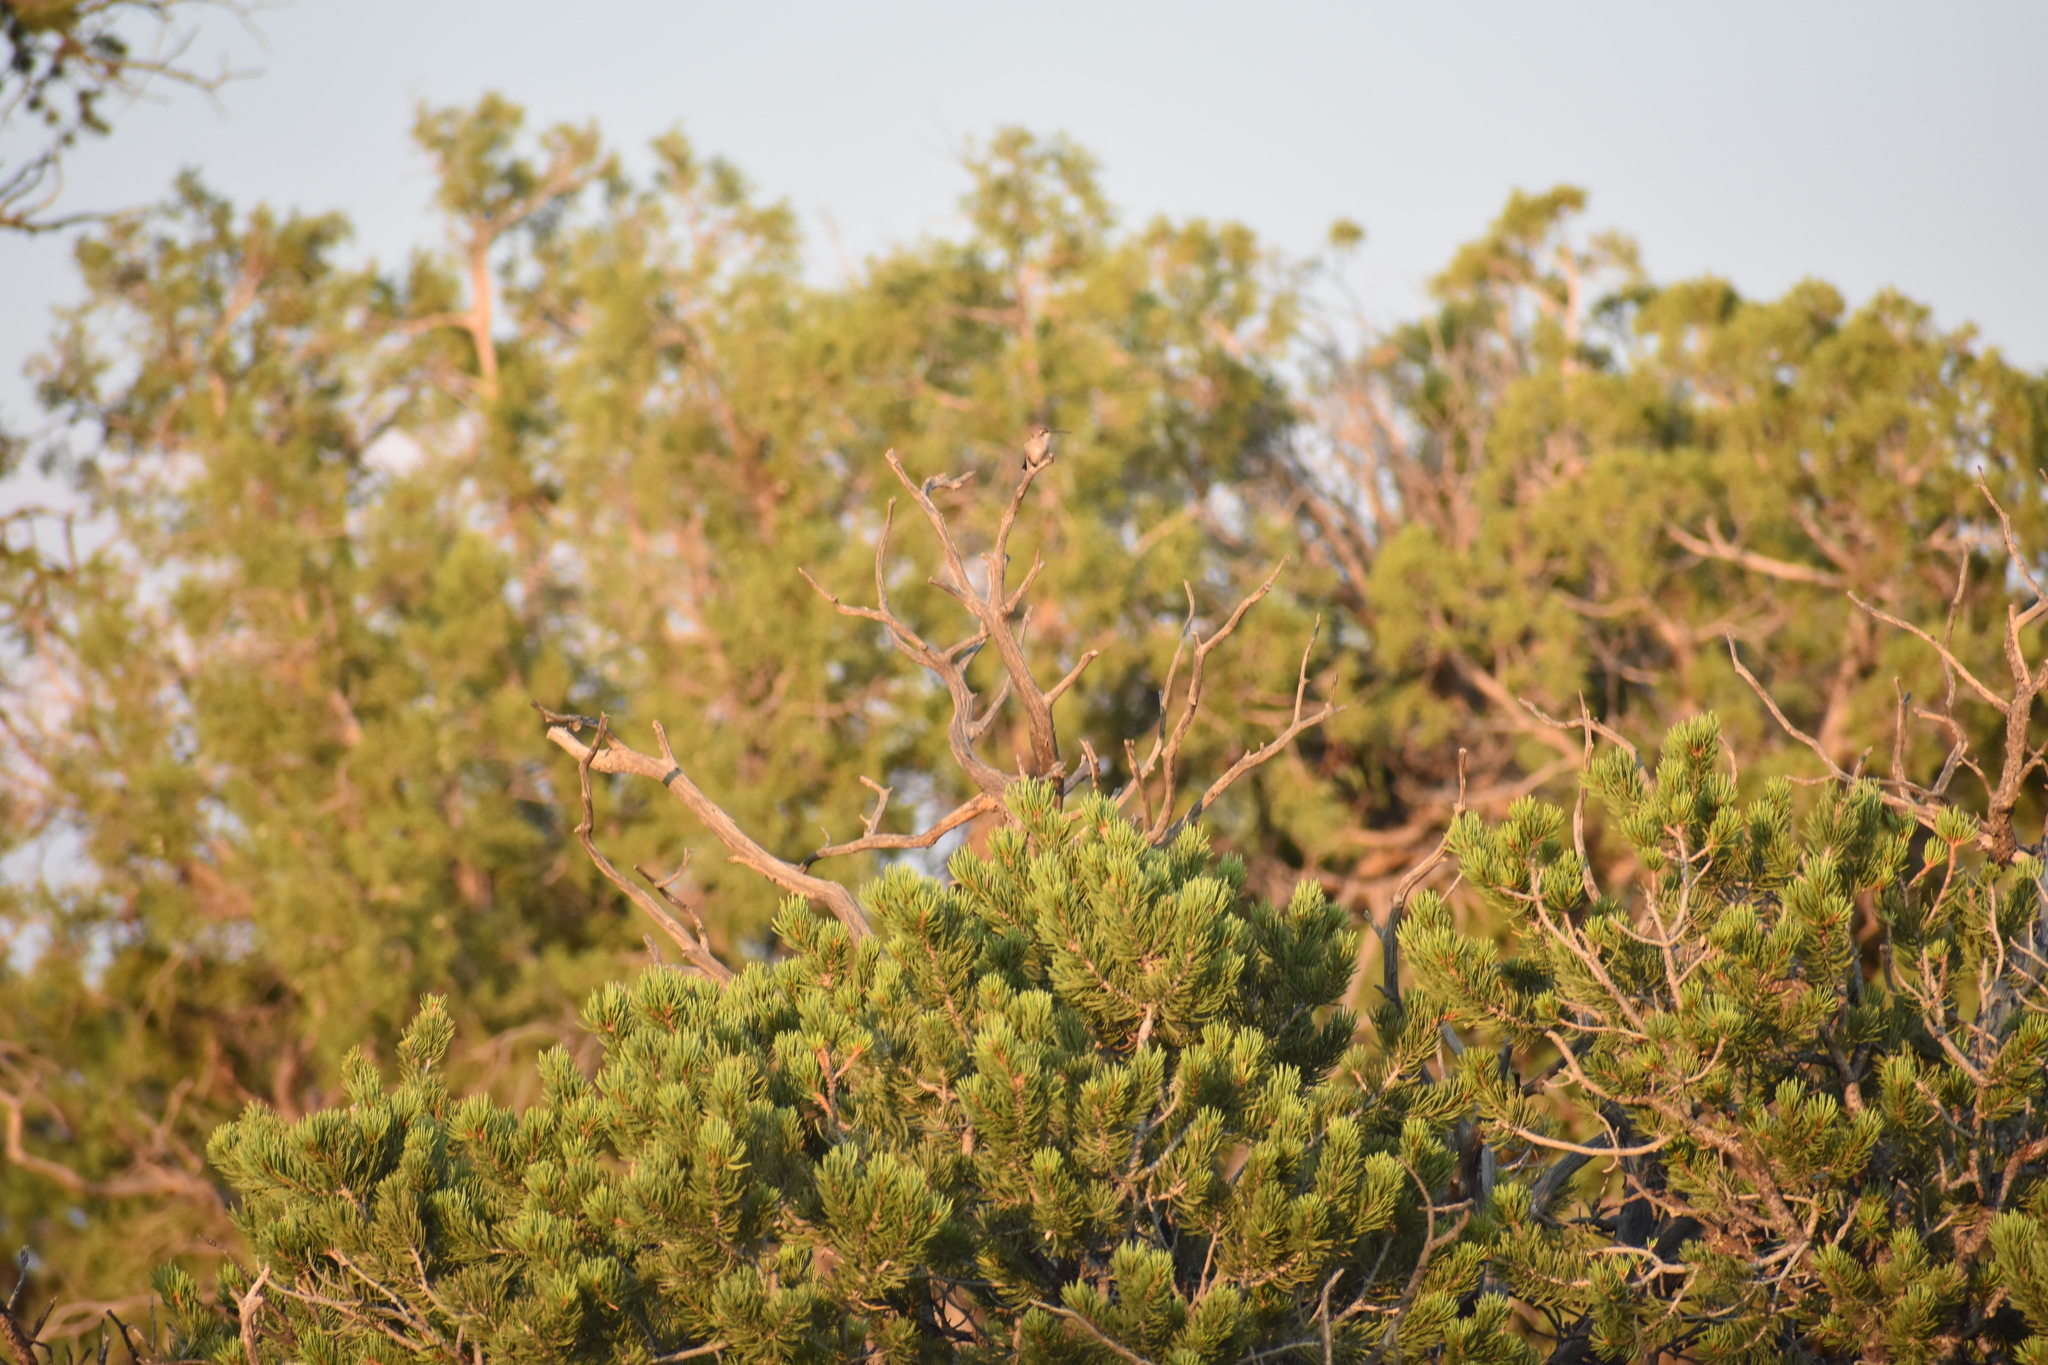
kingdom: Animalia
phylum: Chordata
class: Aves
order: Apodiformes
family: Trochilidae
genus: Archilochus
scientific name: Archilochus alexandri
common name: Black-chinned hummingbird
